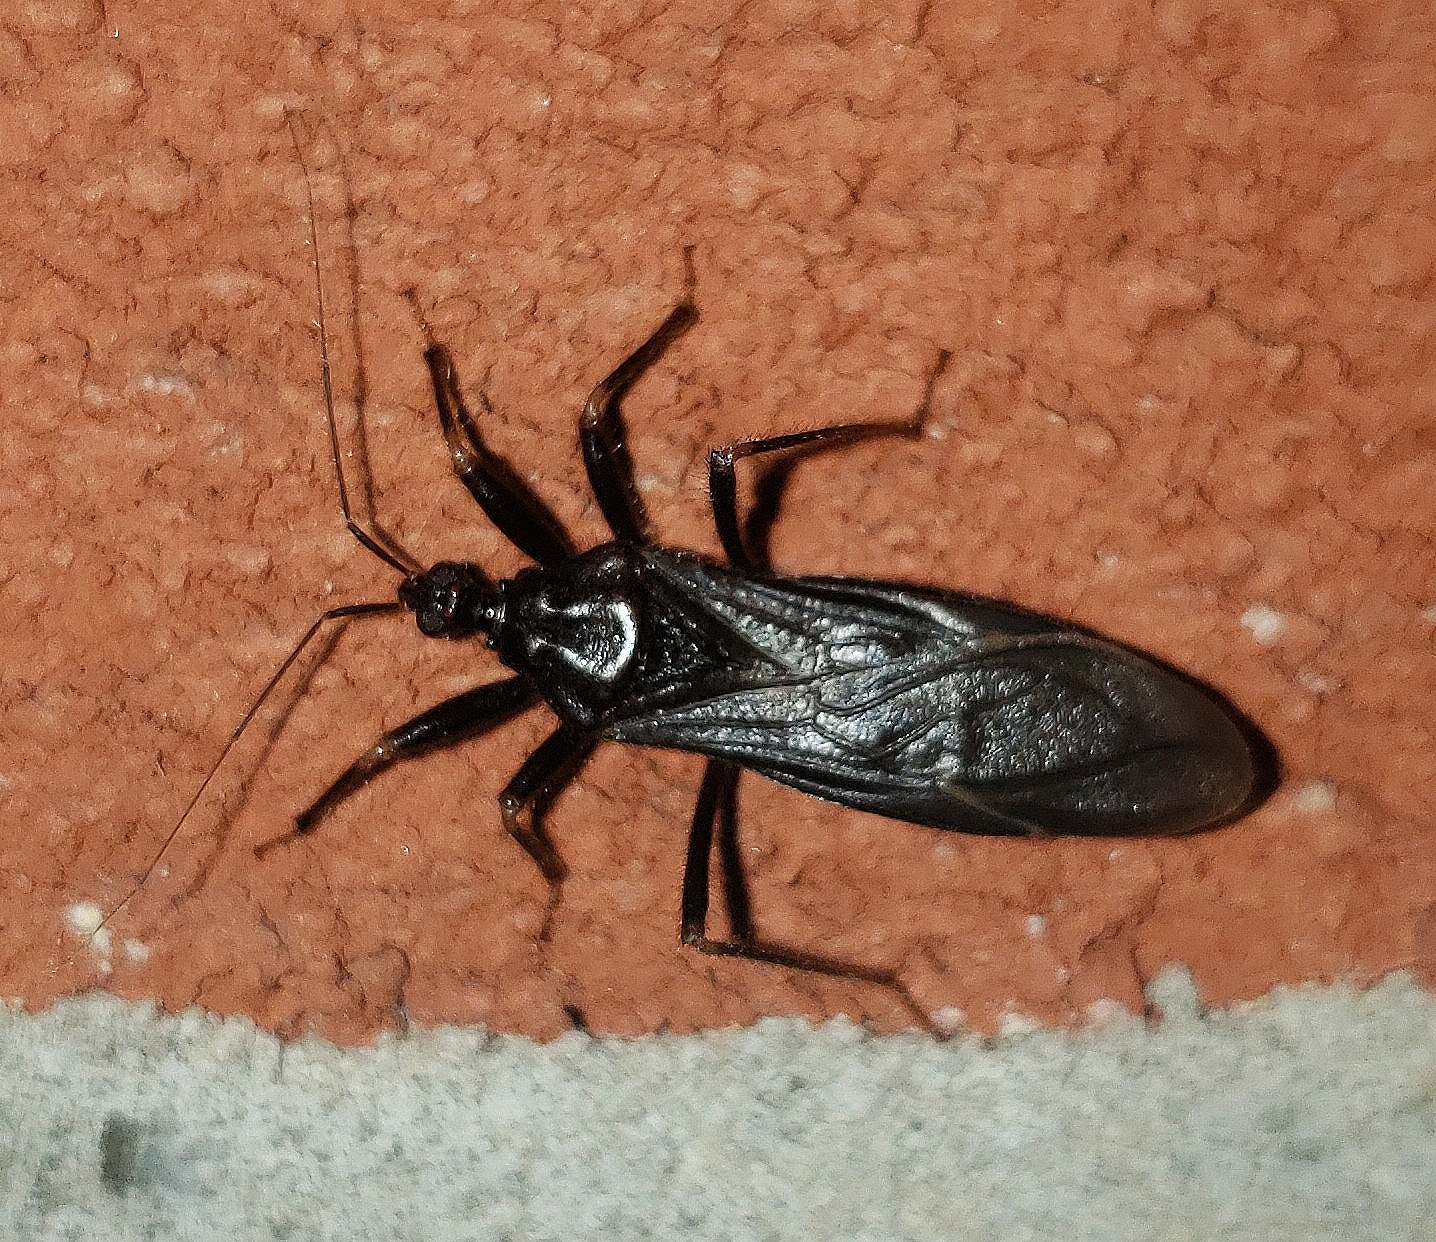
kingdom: Animalia
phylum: Arthropoda
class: Insecta
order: Hemiptera
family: Reduviidae
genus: Reduvius
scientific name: Reduvius personatus
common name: Masked hunter
